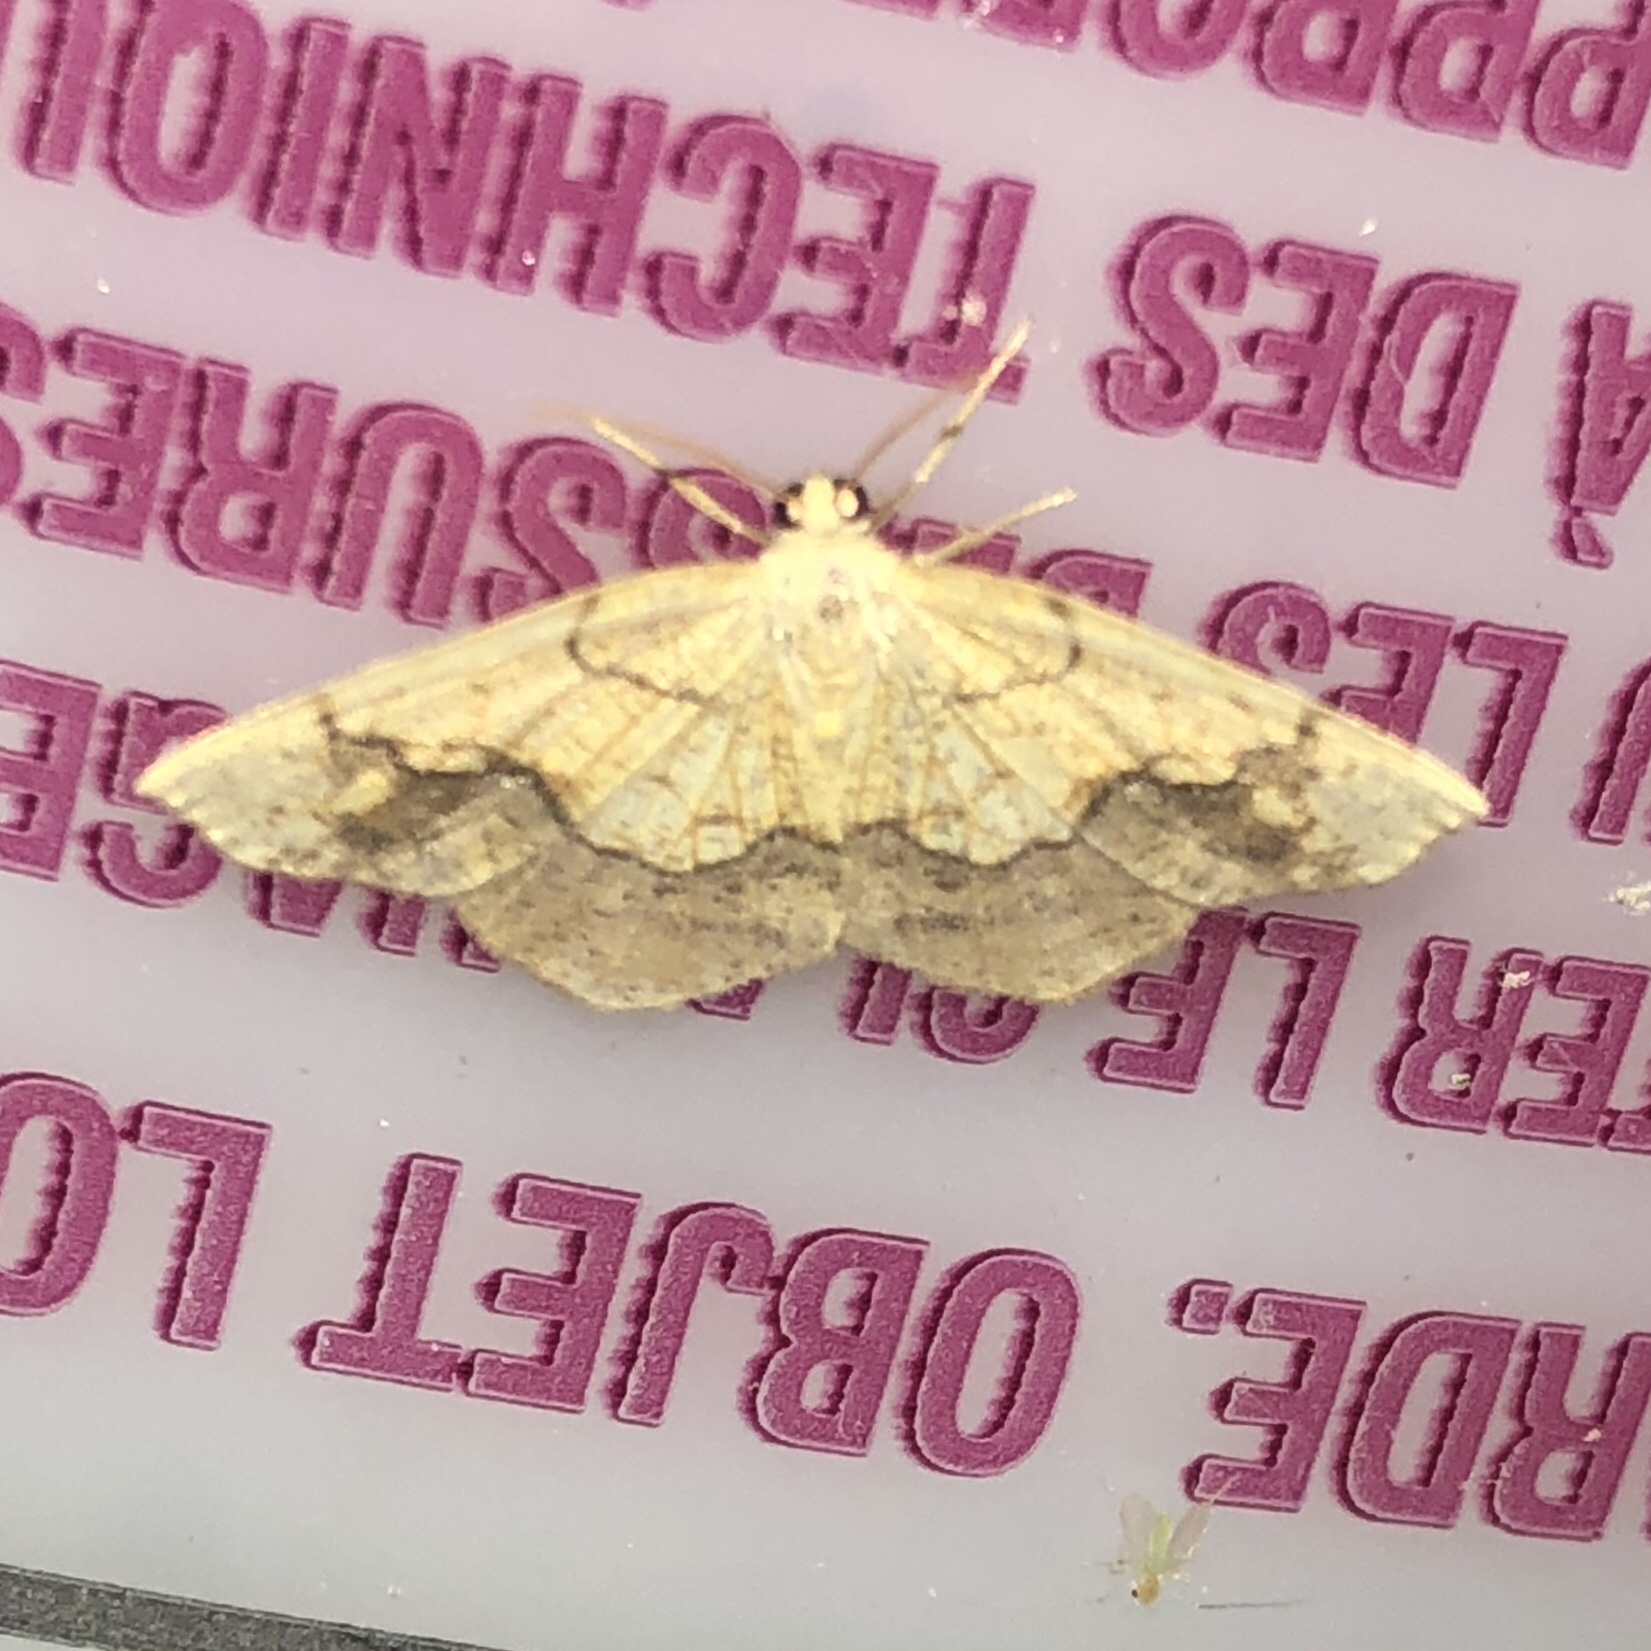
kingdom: Animalia
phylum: Arthropoda
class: Insecta
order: Lepidoptera
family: Geometridae
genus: Nematocampa
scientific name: Nematocampa resistaria
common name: Horned spanworm moth
